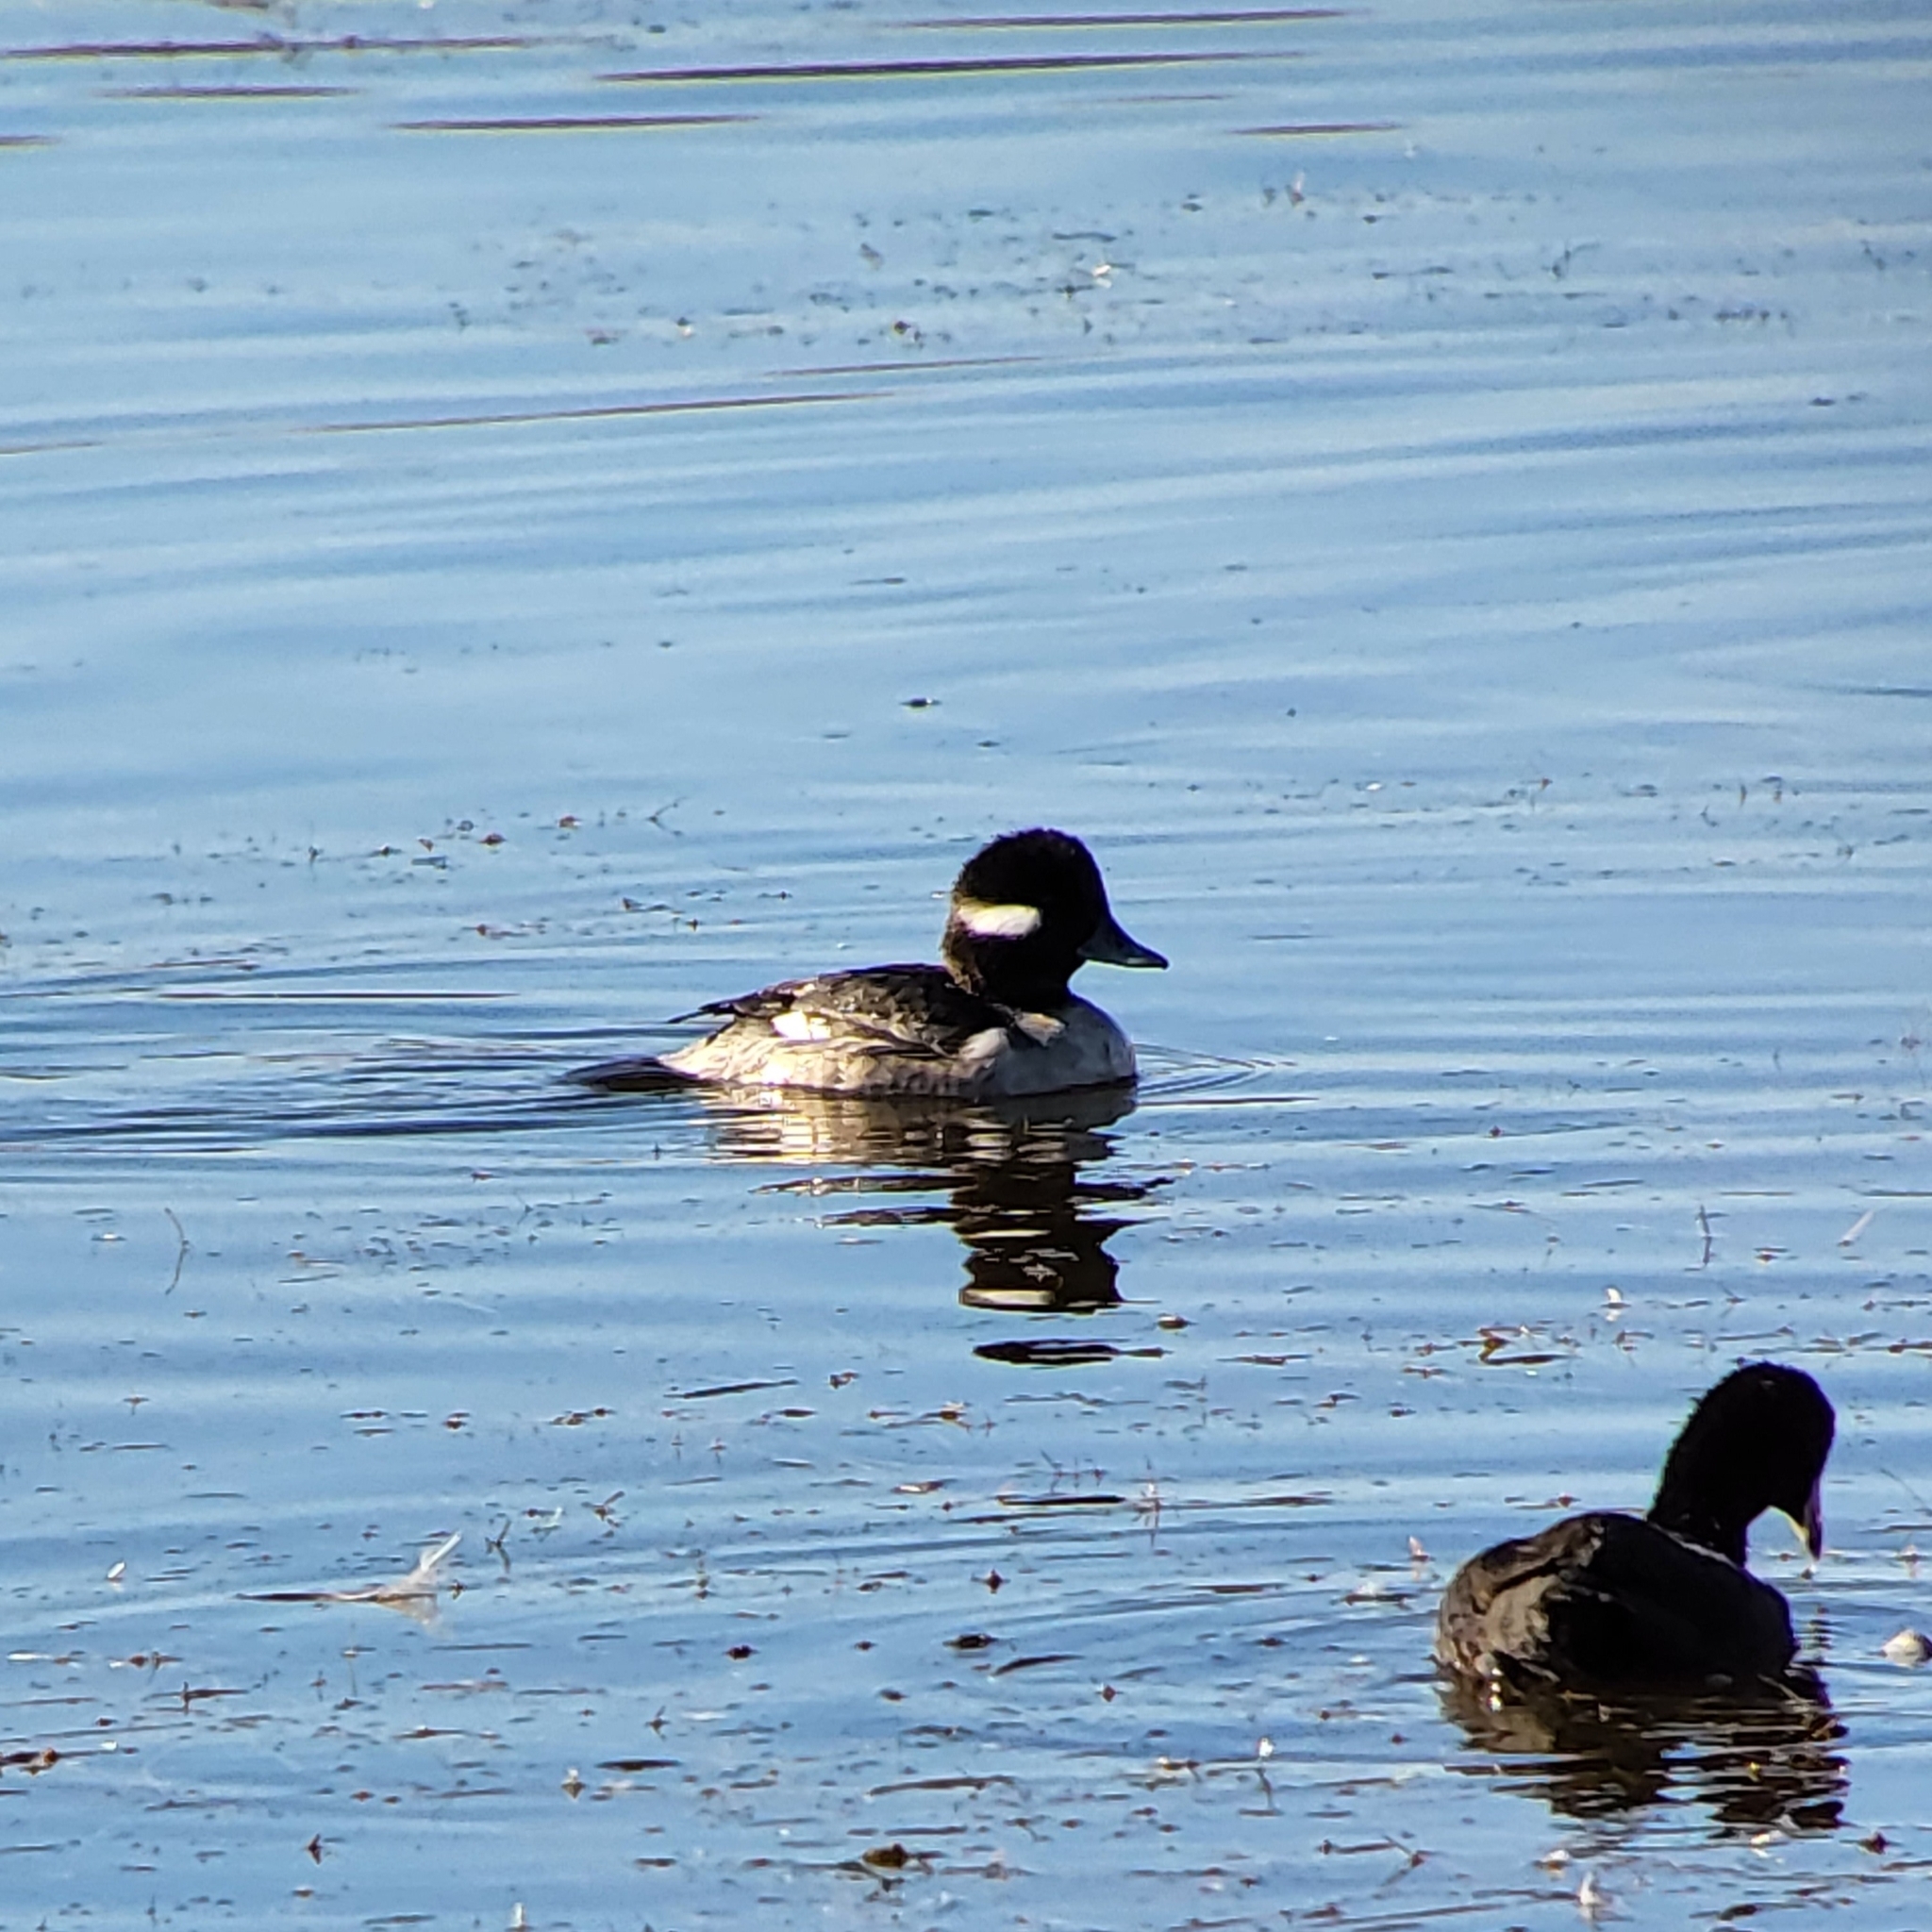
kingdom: Animalia
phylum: Chordata
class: Aves
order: Anseriformes
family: Anatidae
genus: Bucephala
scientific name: Bucephala albeola
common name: Bufflehead
